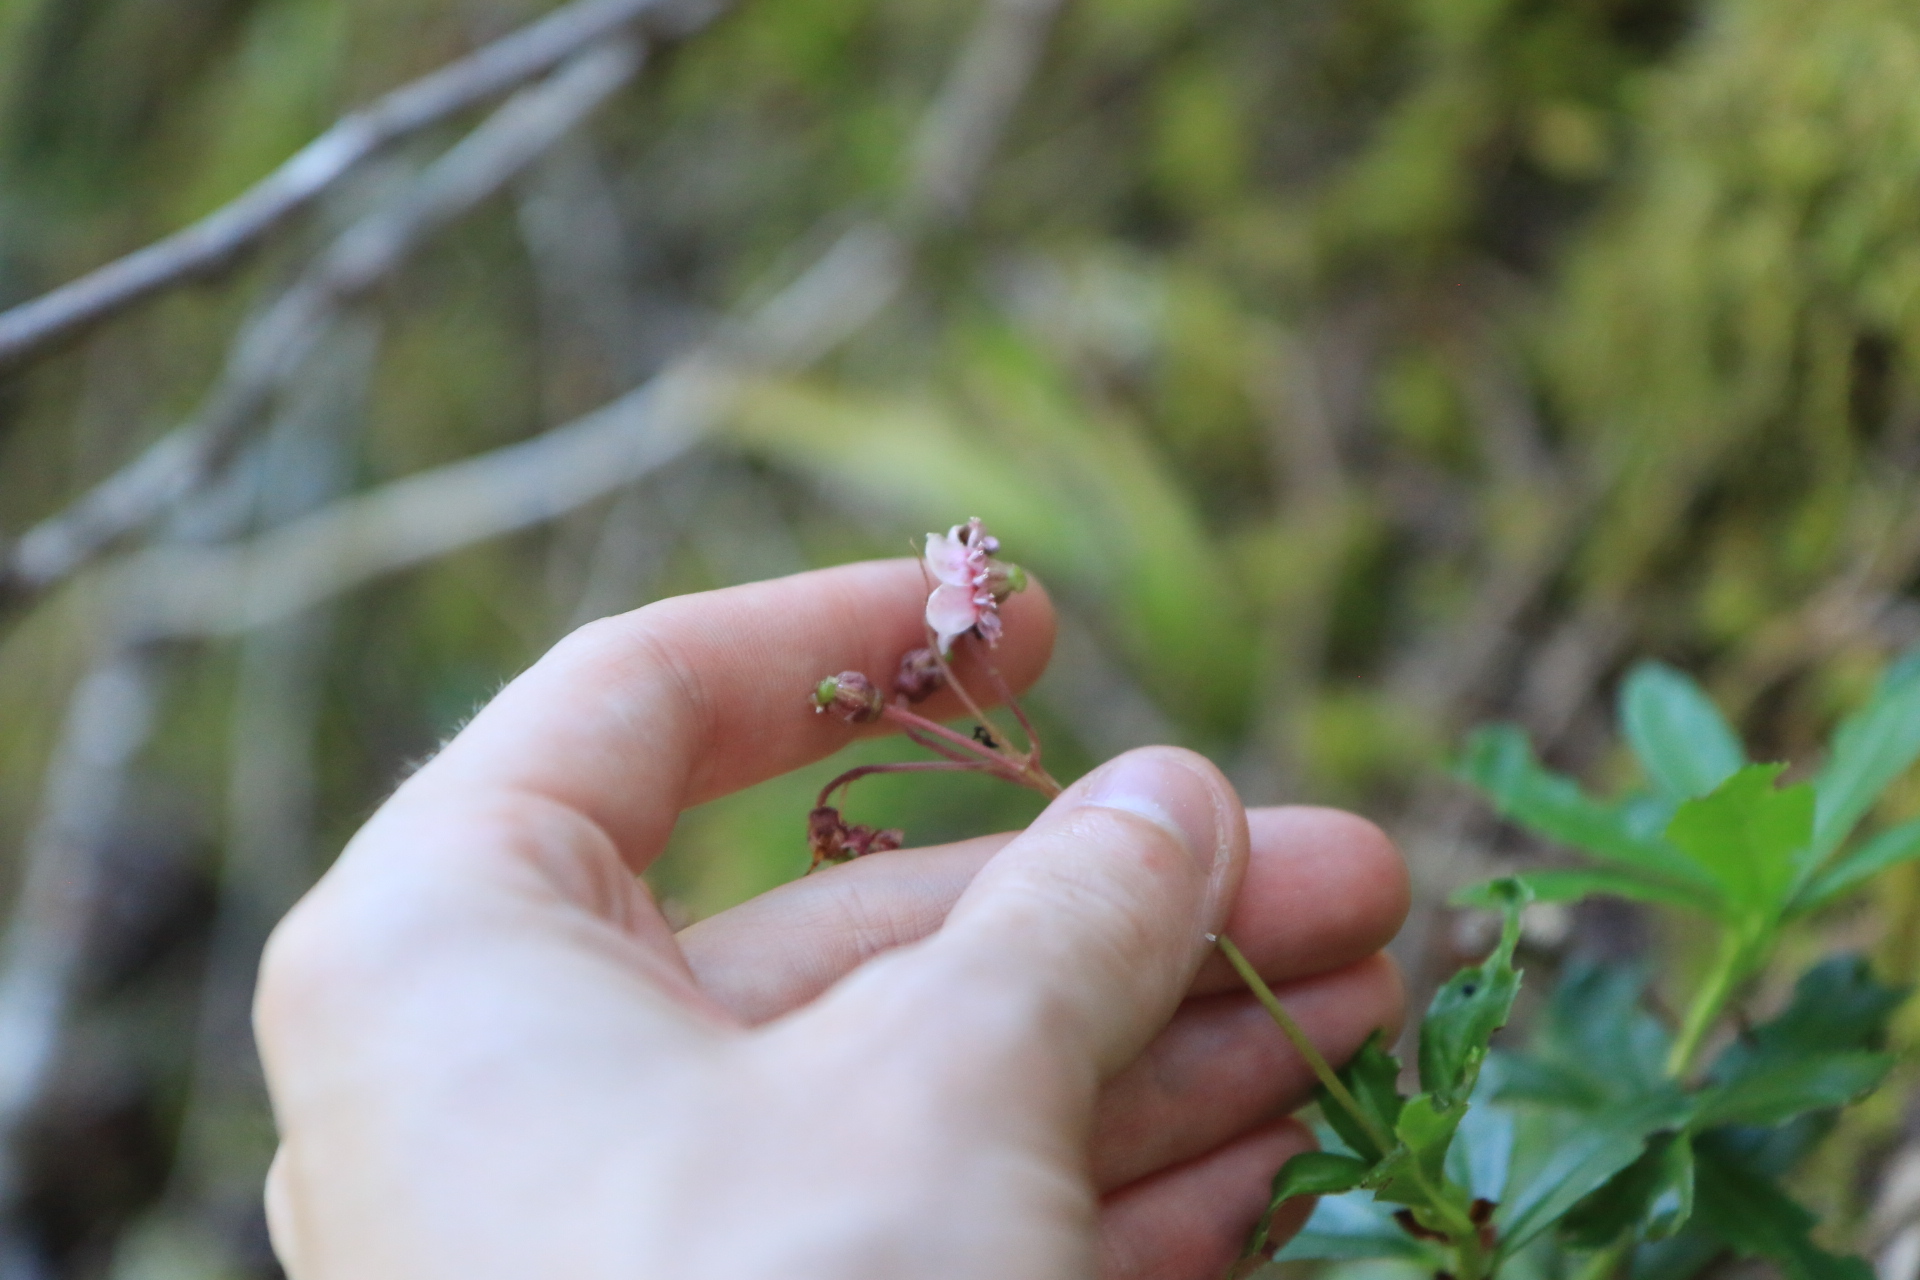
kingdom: Plantae
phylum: Tracheophyta
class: Magnoliopsida
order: Ericales
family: Ericaceae
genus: Chimaphila
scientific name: Chimaphila umbellata
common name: Pipsissewa
